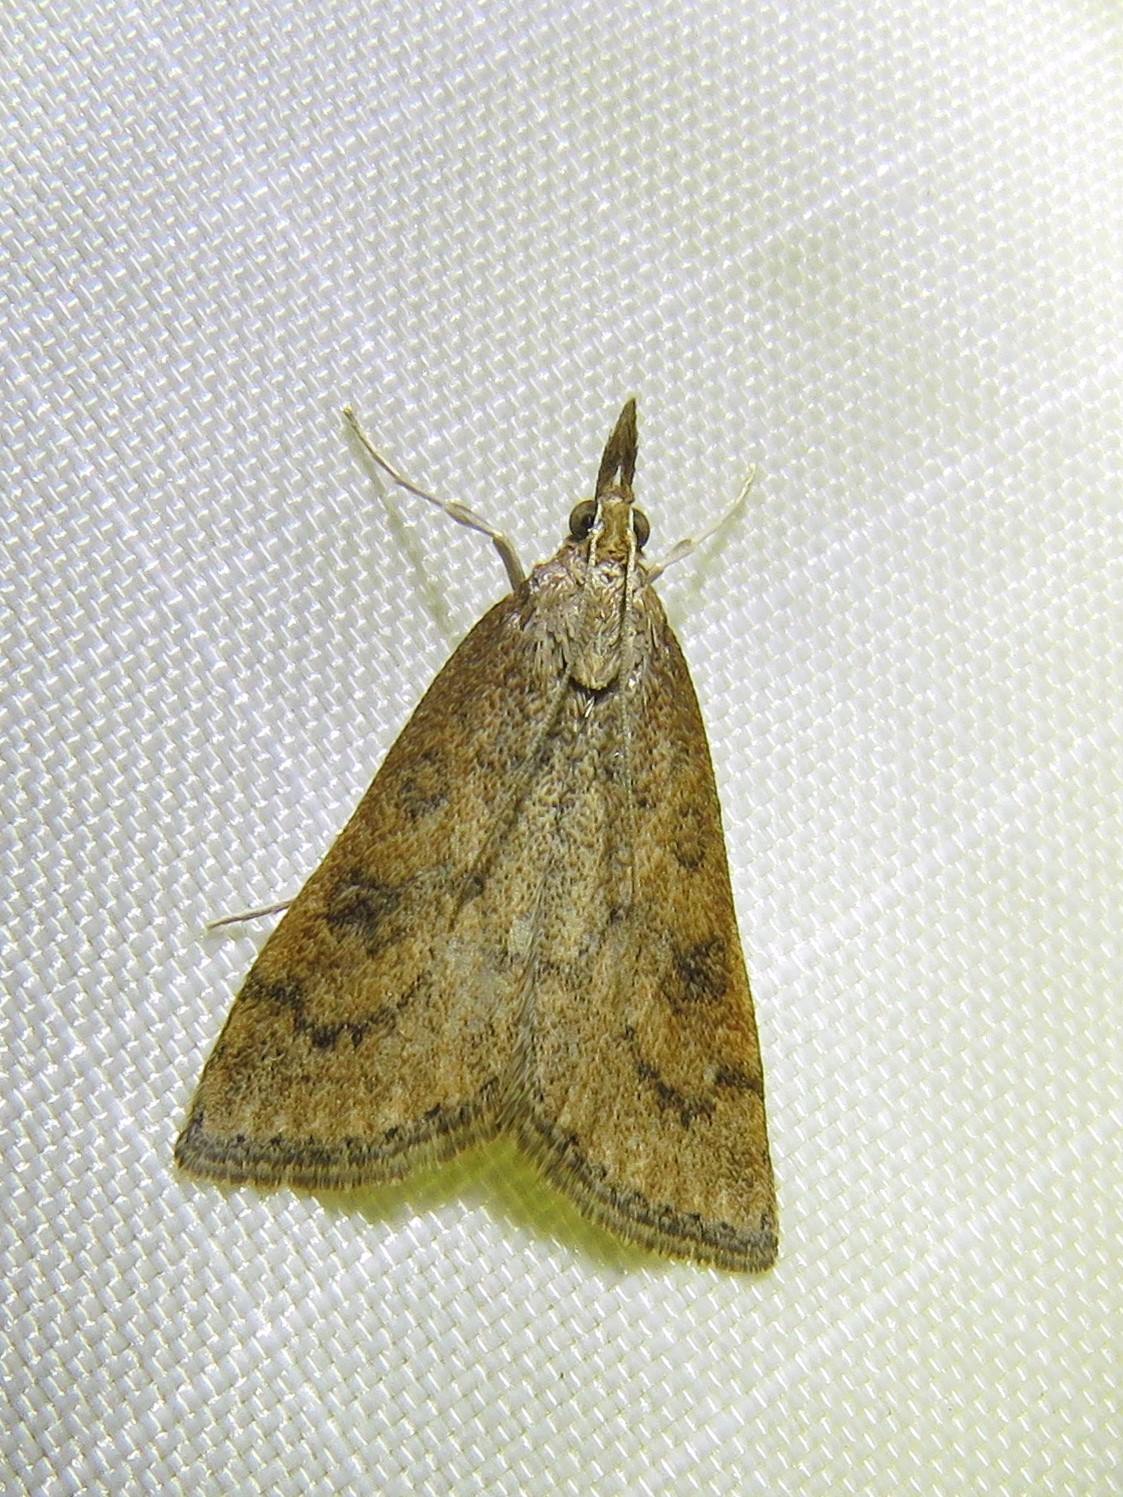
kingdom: Animalia
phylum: Arthropoda
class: Insecta
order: Lepidoptera
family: Crambidae
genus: Udea
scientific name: Udea rubigalis
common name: Celery leaftier moth
